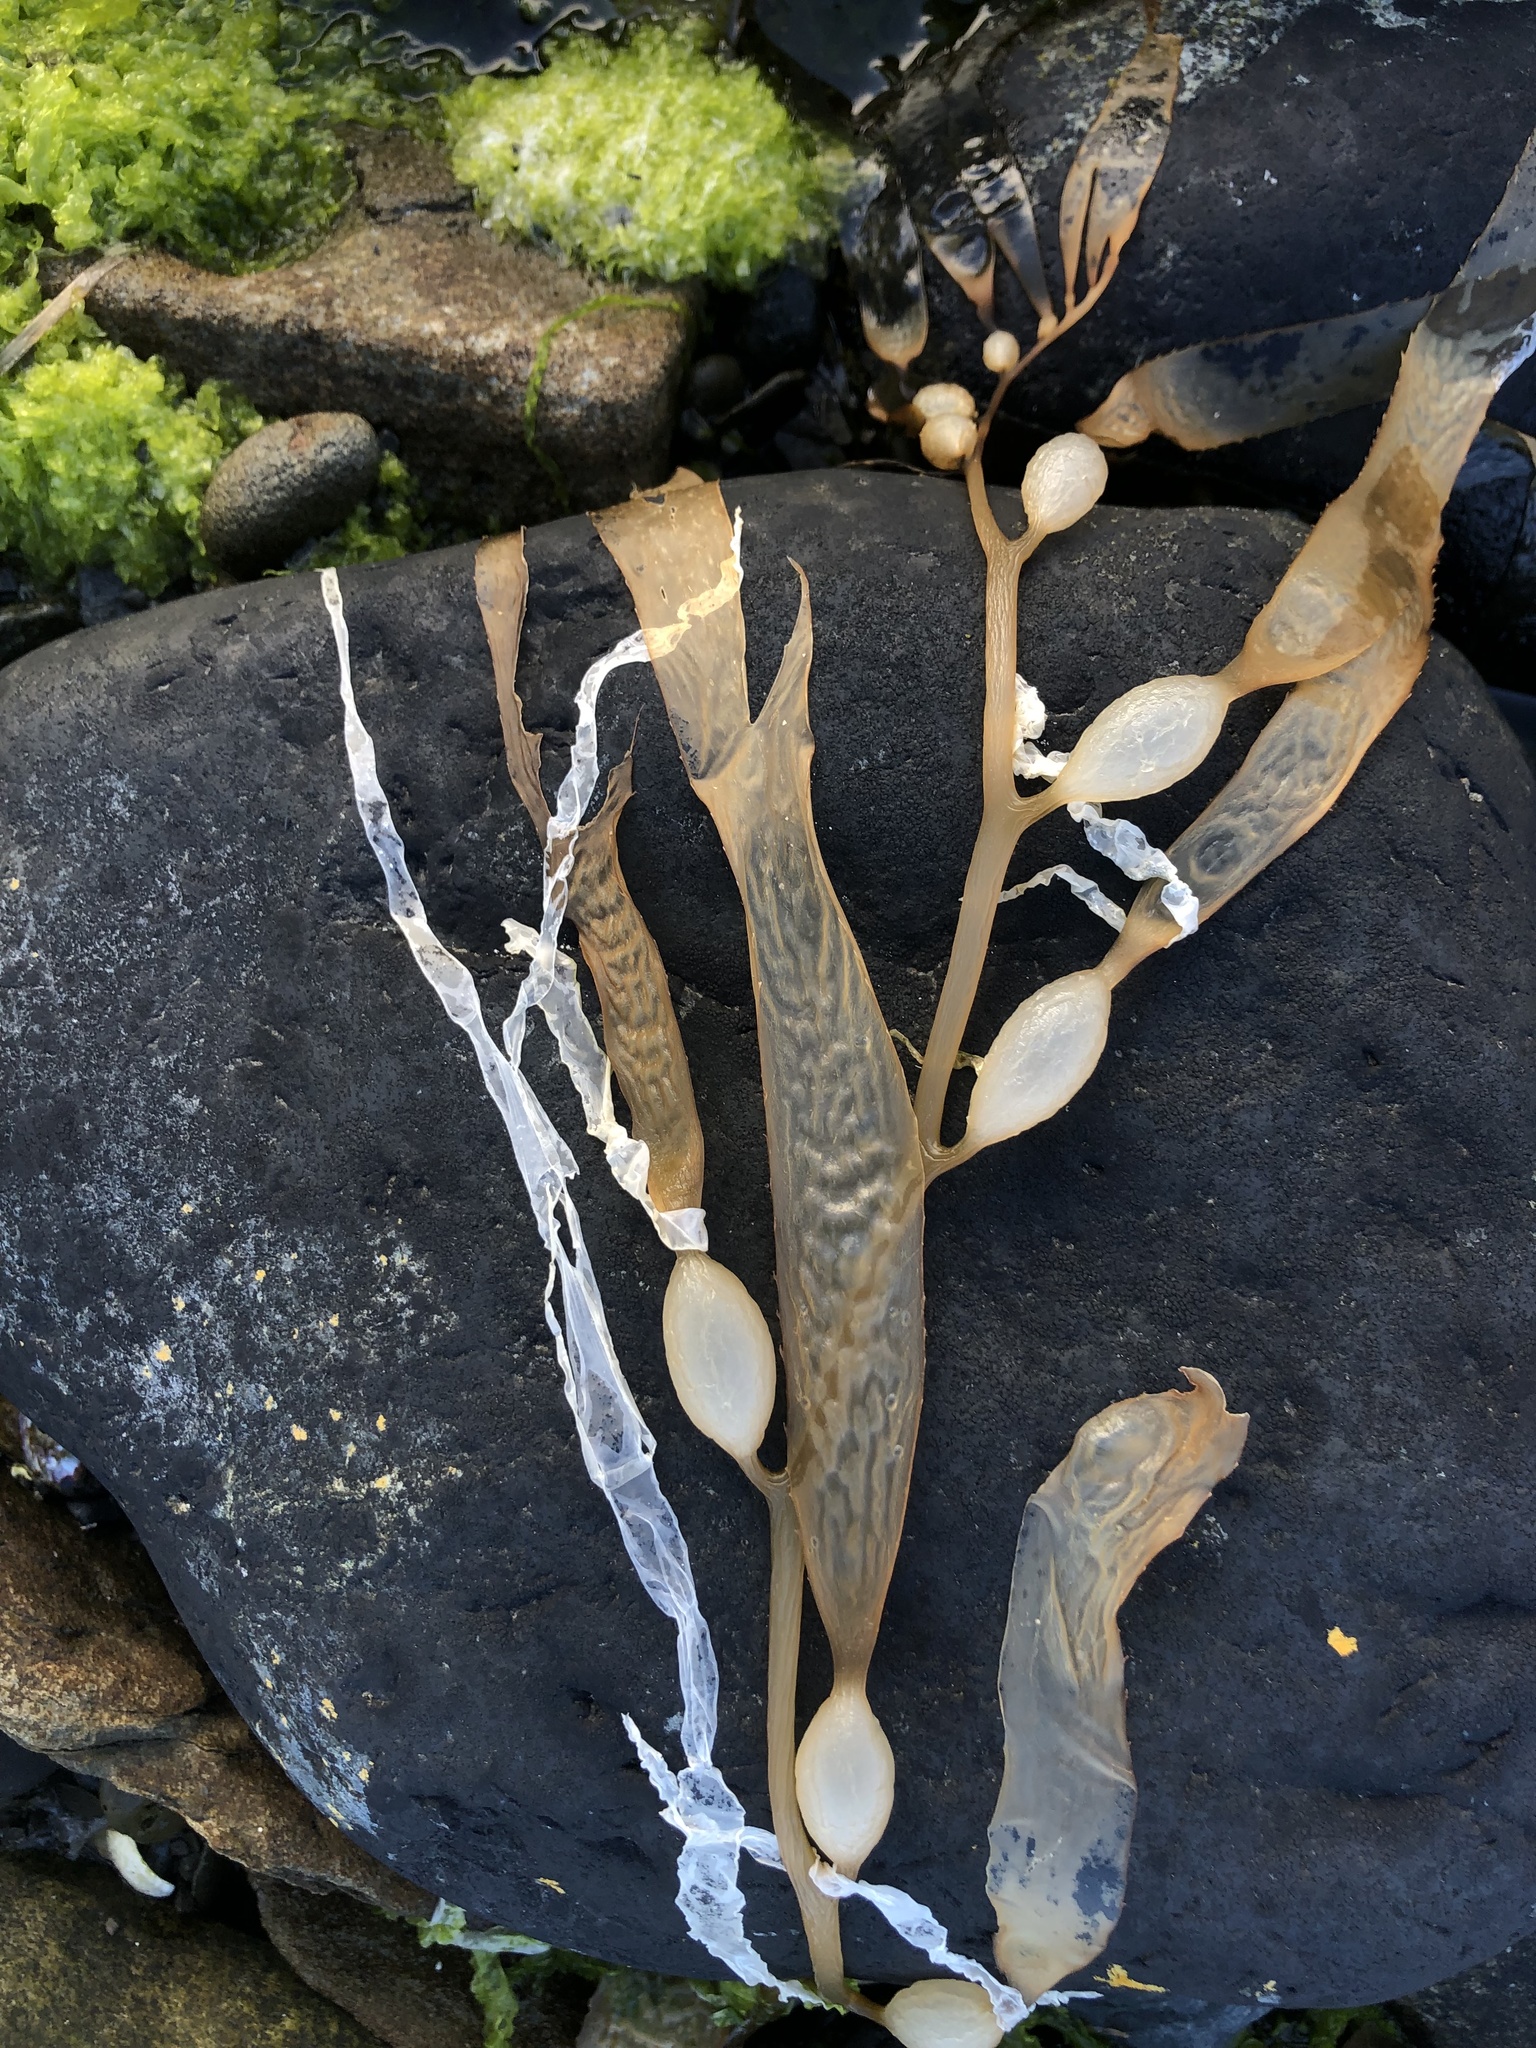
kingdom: Chromista
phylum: Ochrophyta
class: Phaeophyceae
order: Laminariales
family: Laminariaceae
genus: Macrocystis
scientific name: Macrocystis pyrifera
